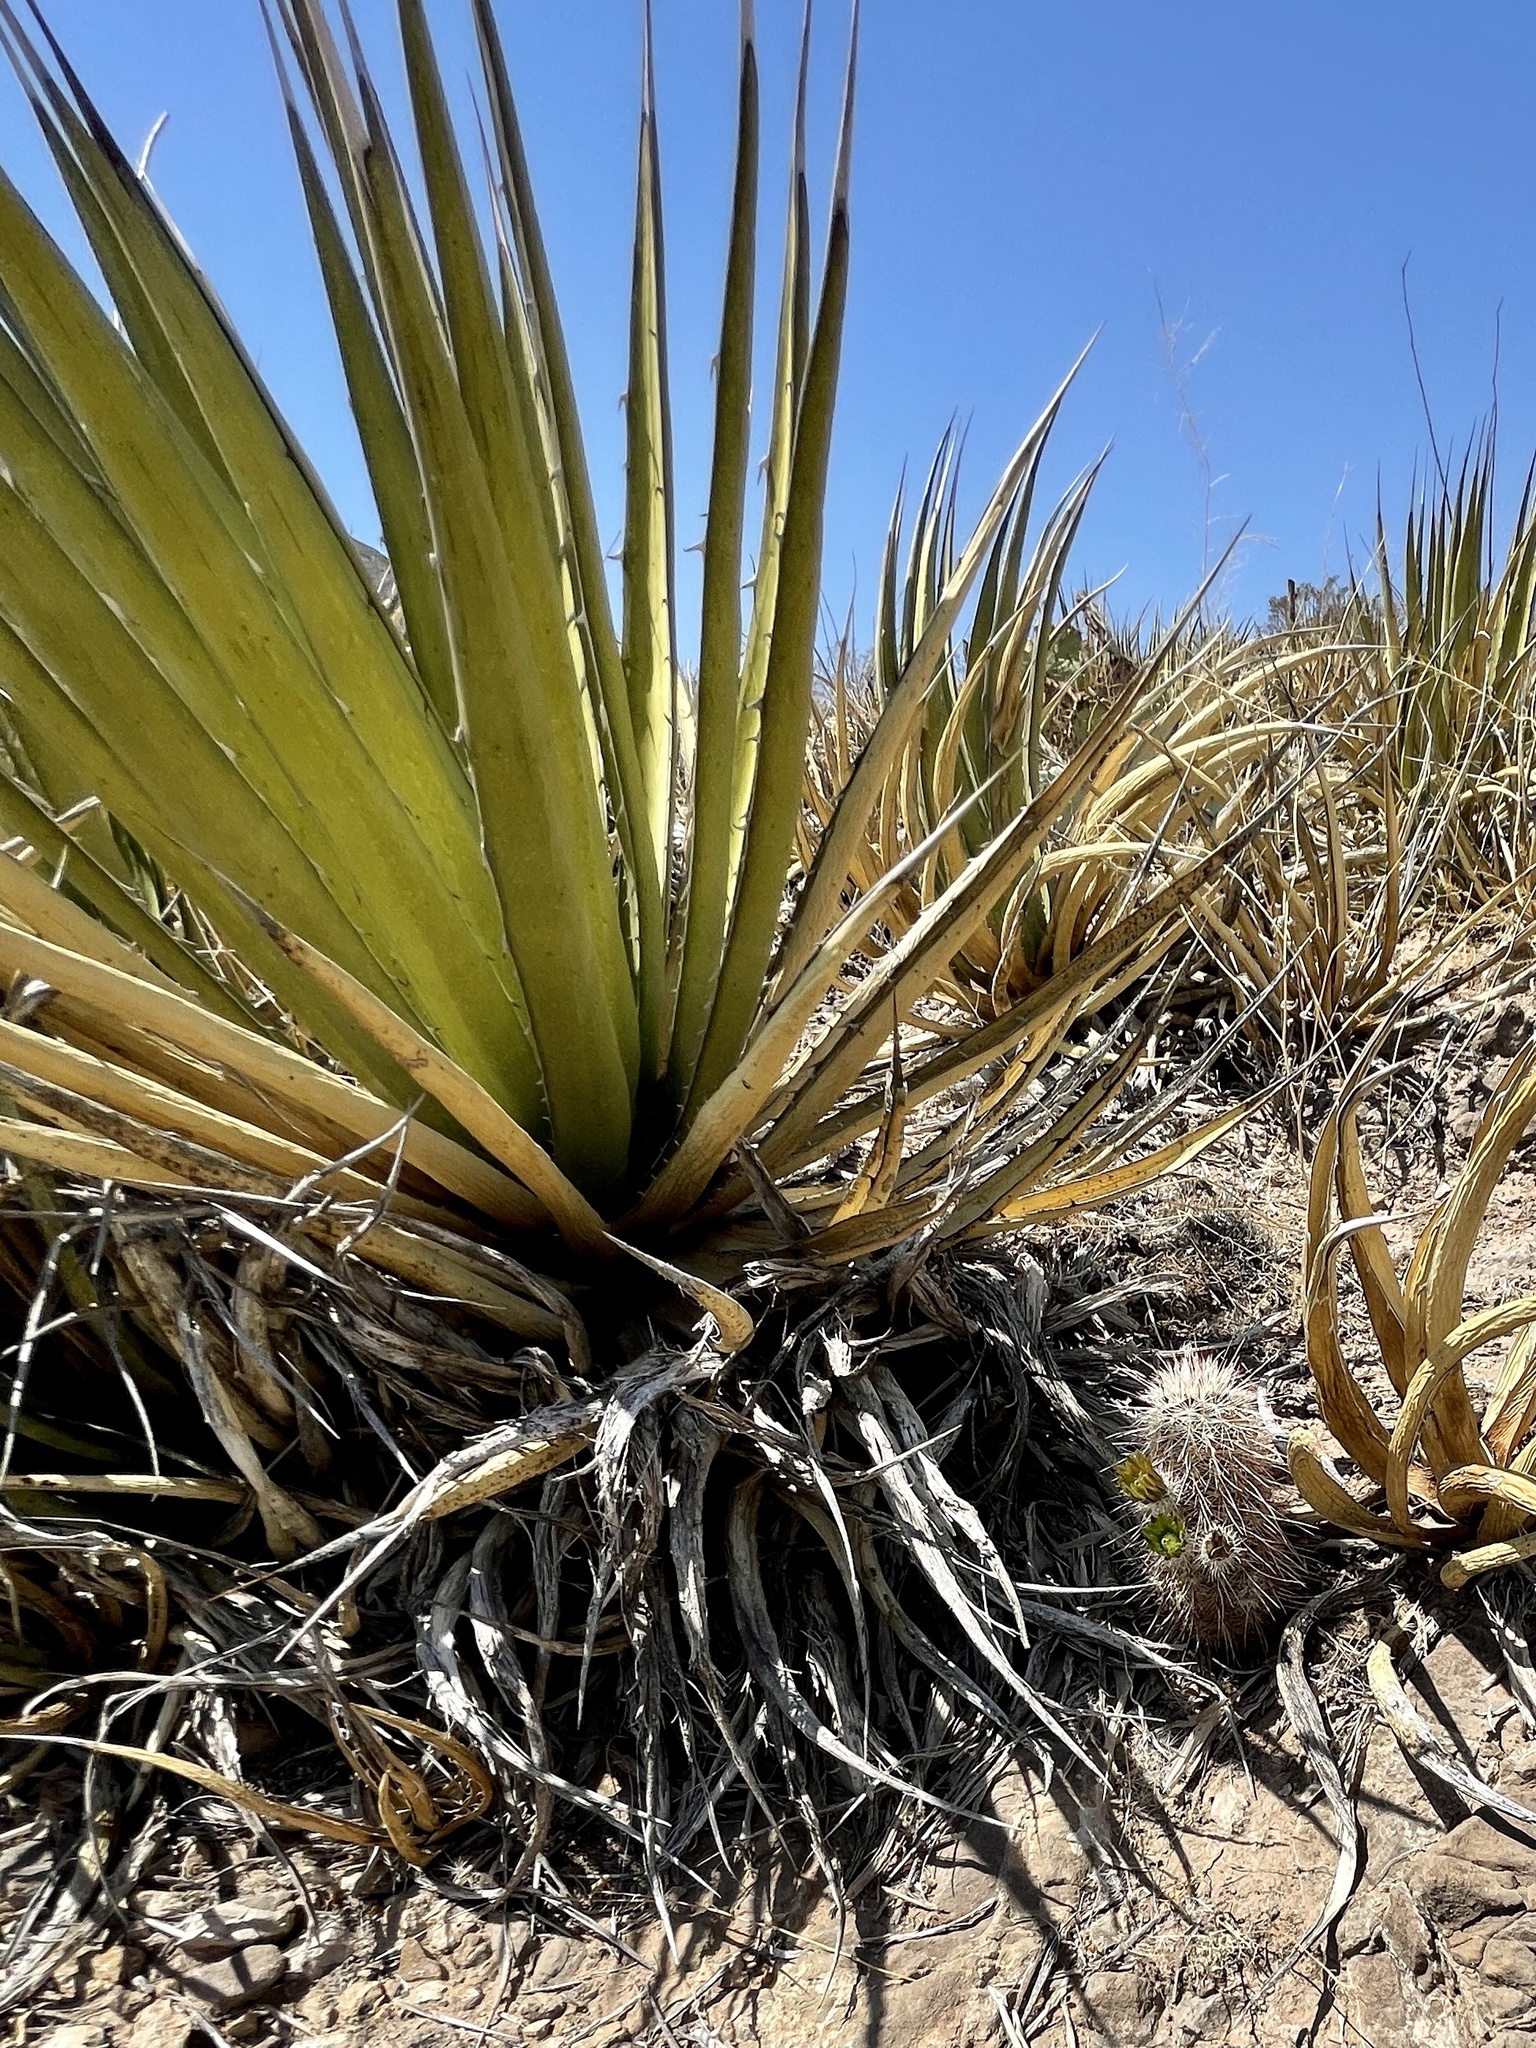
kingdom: Plantae
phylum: Tracheophyta
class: Liliopsida
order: Asparagales
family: Asparagaceae
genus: Agave
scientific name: Agave lechuguilla
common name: Lecheguilla agave
